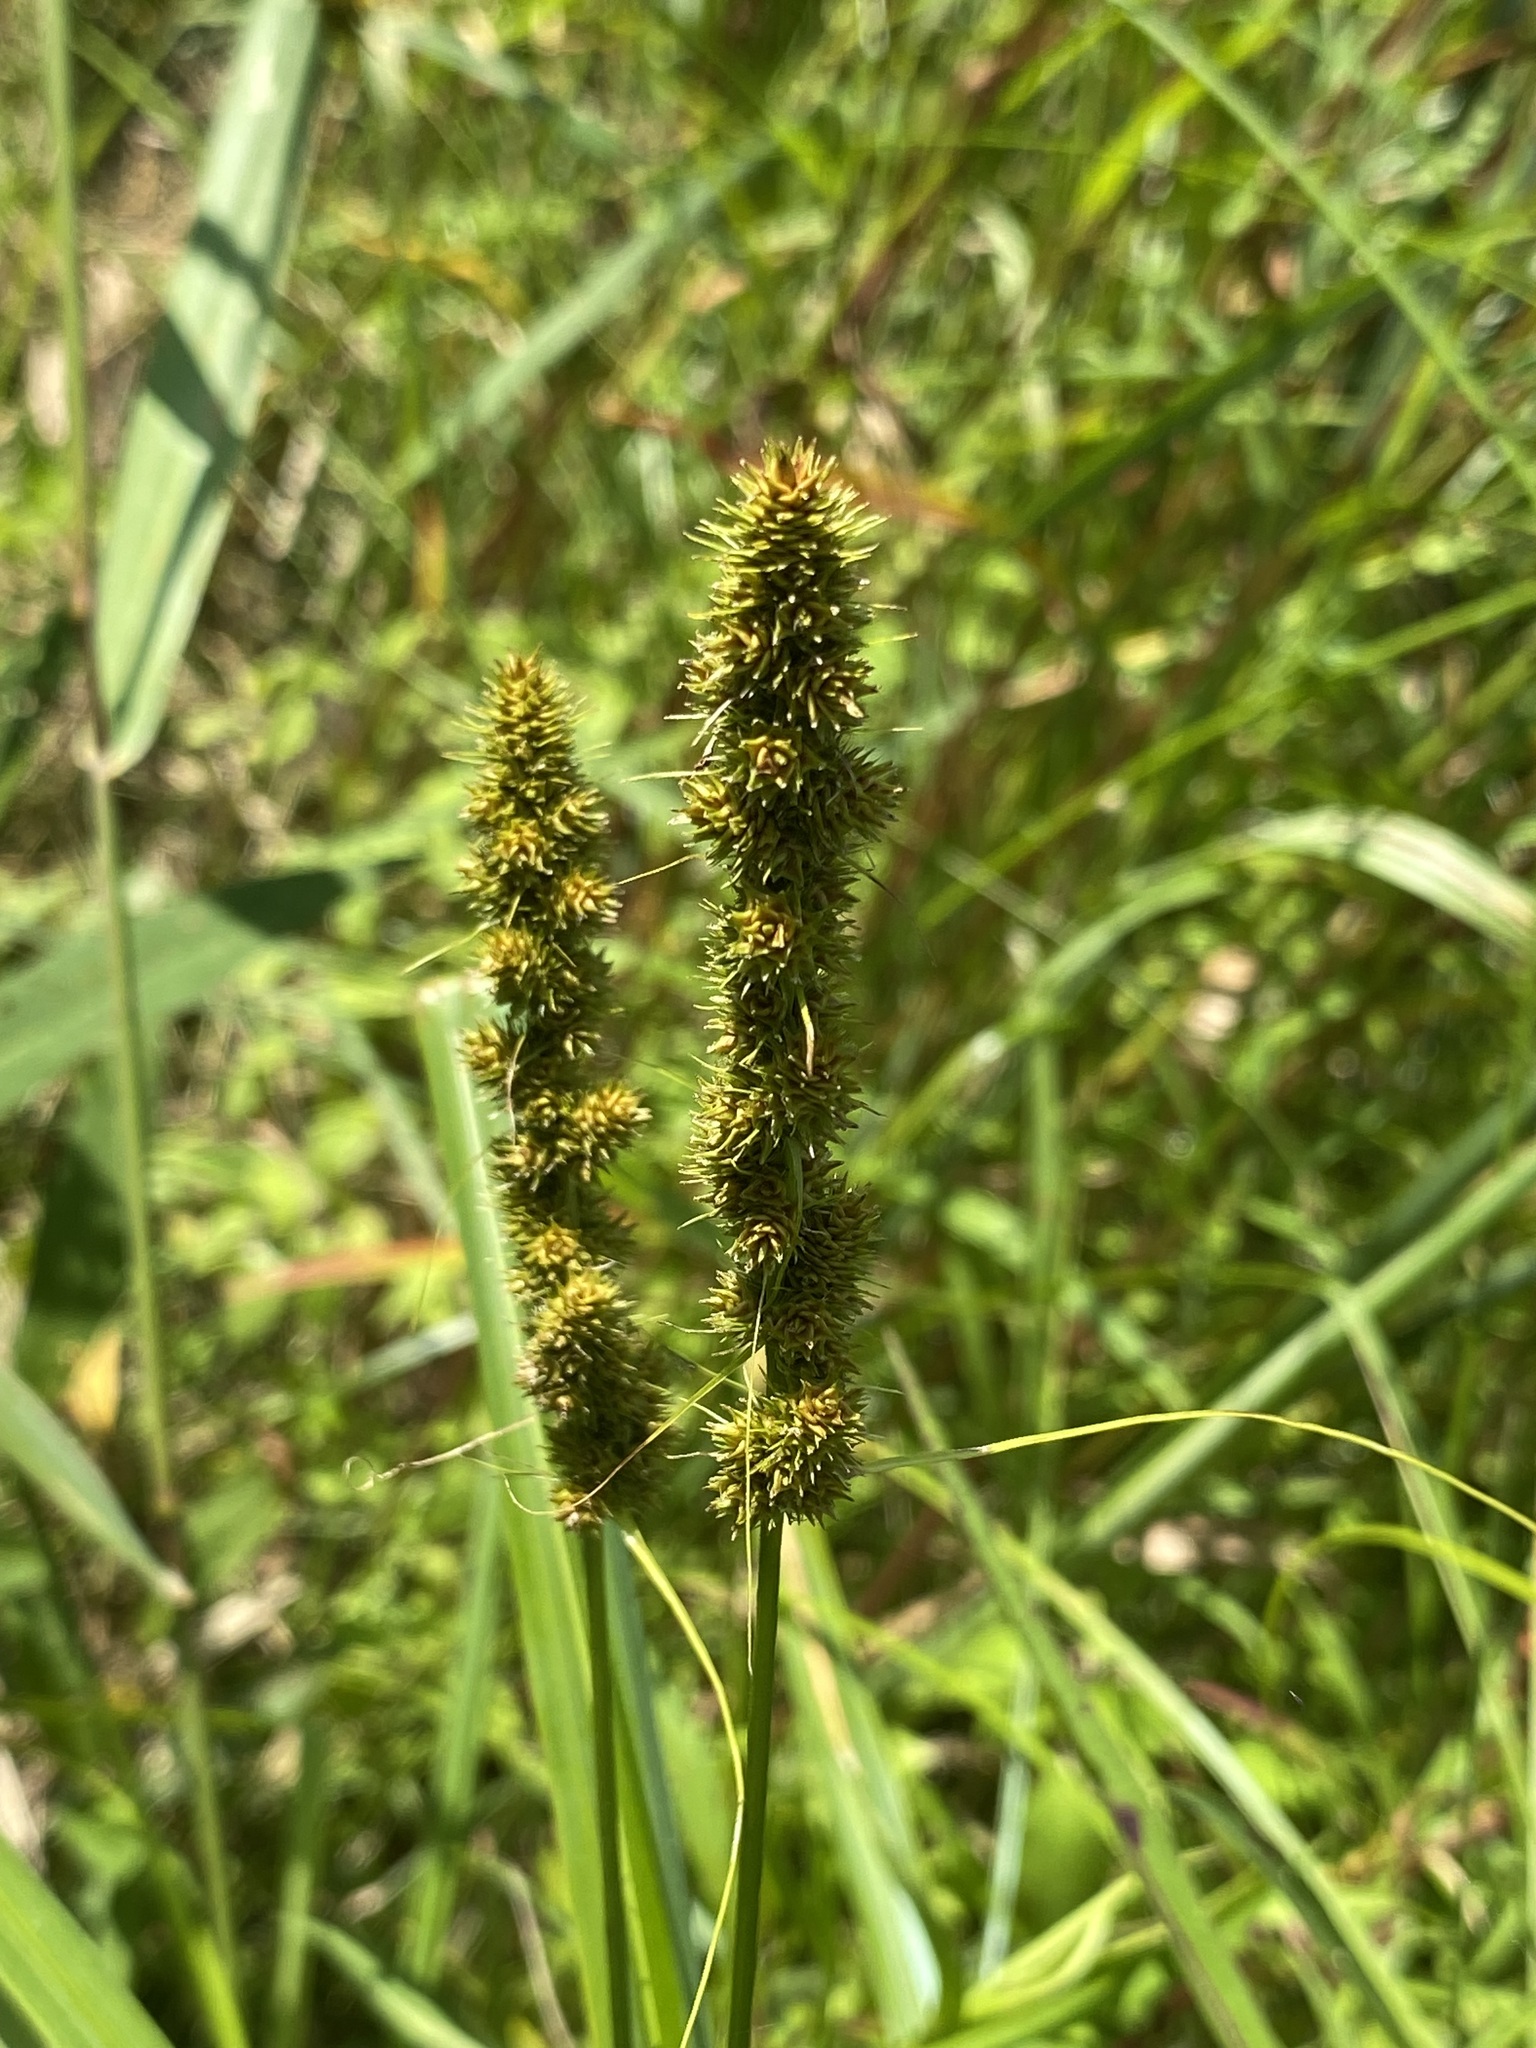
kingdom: Plantae
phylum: Tracheophyta
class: Liliopsida
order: Poales
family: Cyperaceae
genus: Carex
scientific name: Carex vulpinoidea
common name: American fox-sedge
